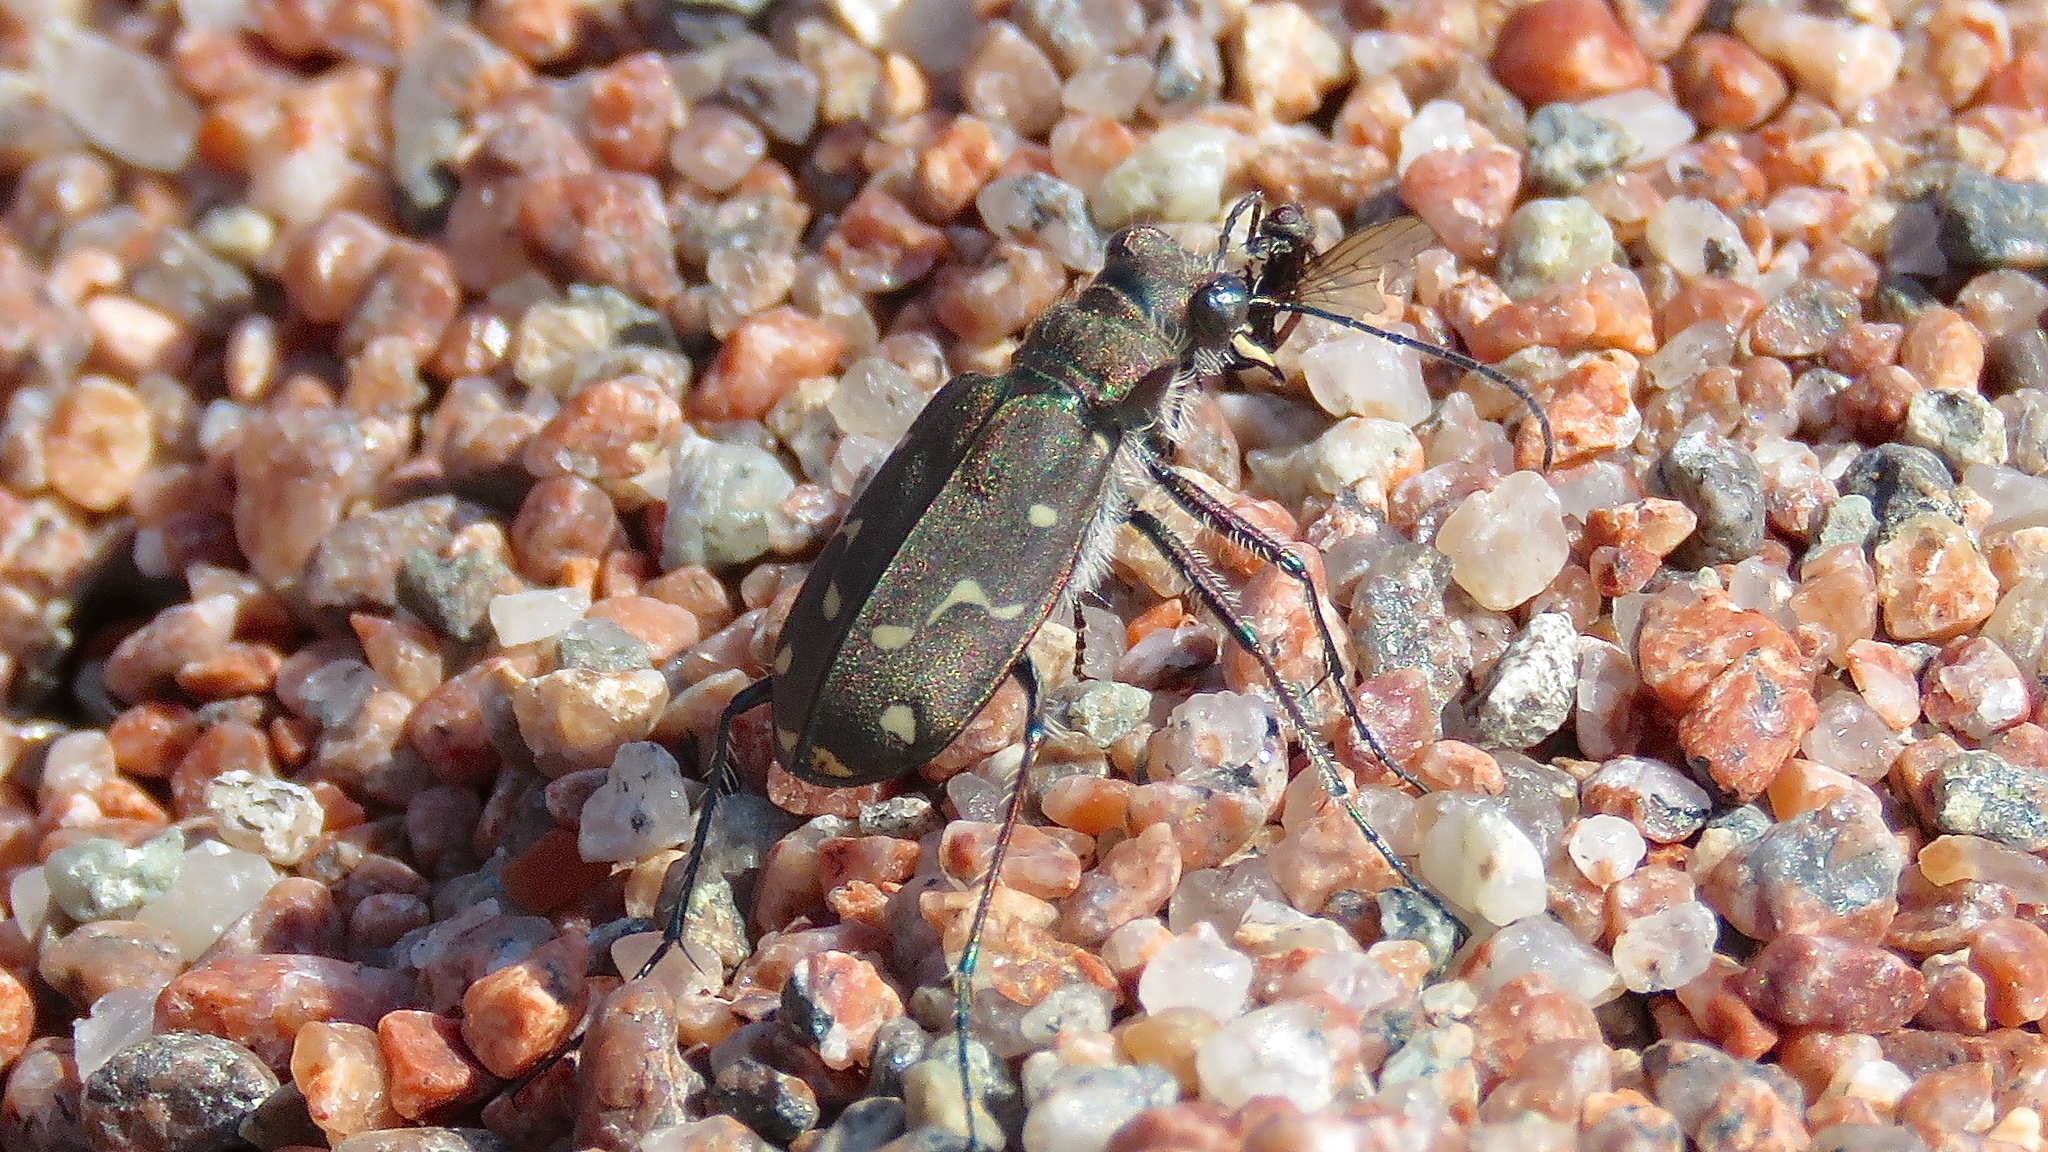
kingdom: Animalia
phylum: Arthropoda
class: Insecta
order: Coleoptera
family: Carabidae
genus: Cicindela
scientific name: Cicindela duodecimguttata
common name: Twelve-spotted tiger beetle
